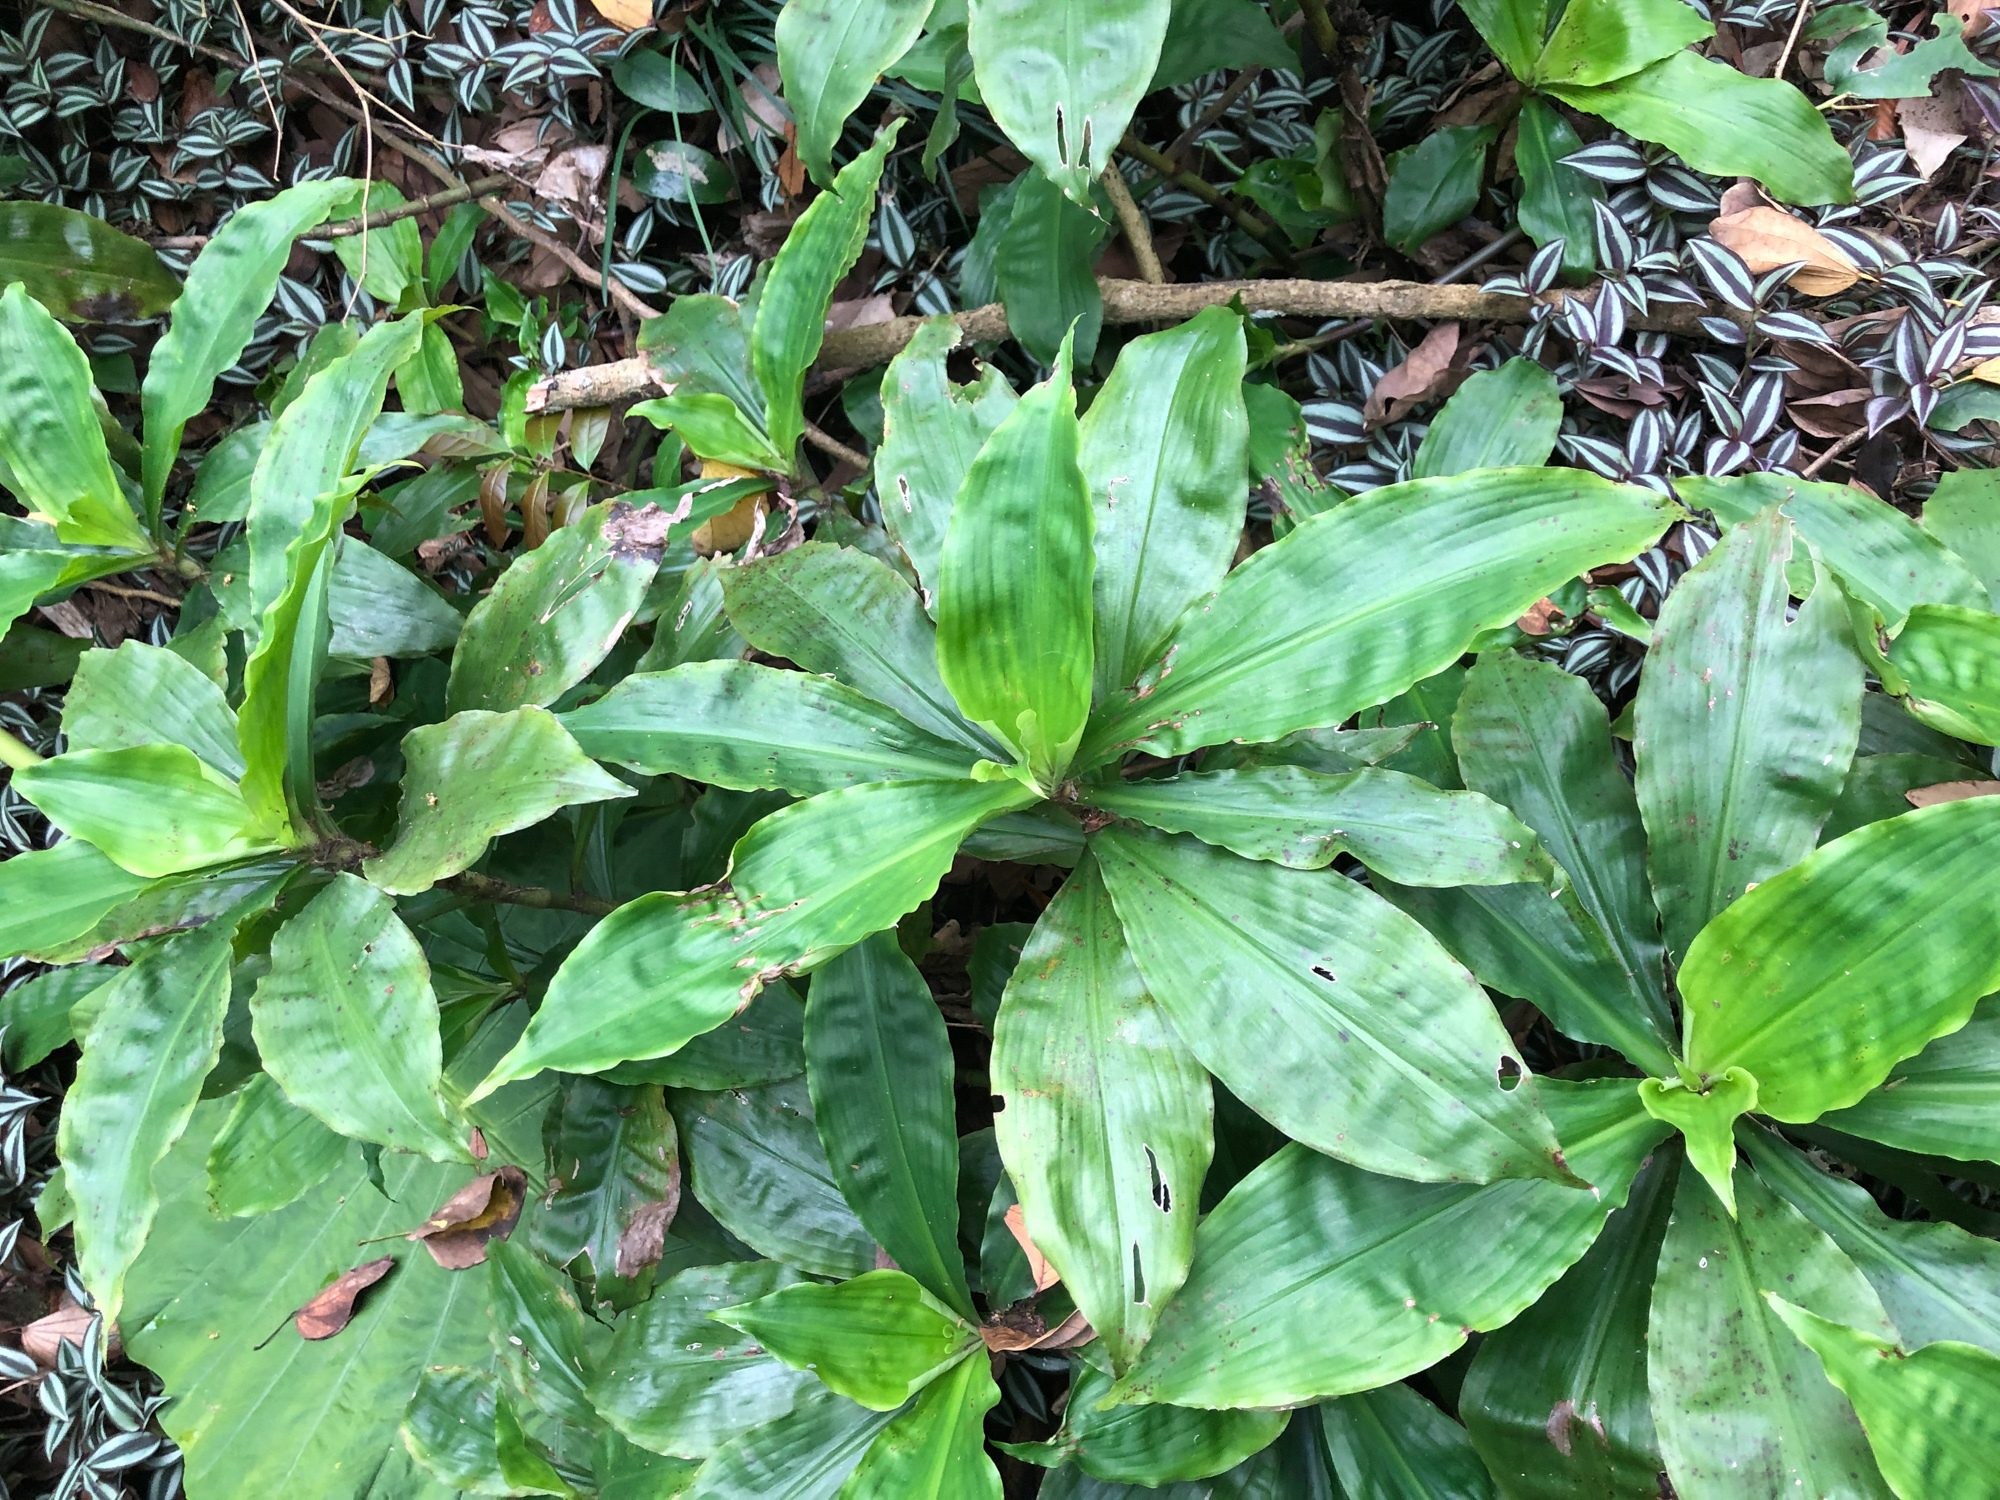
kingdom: Plantae
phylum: Tracheophyta
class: Liliopsida
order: Commelinales
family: Commelinaceae
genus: Amischotolype
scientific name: Amischotolype glabrata
